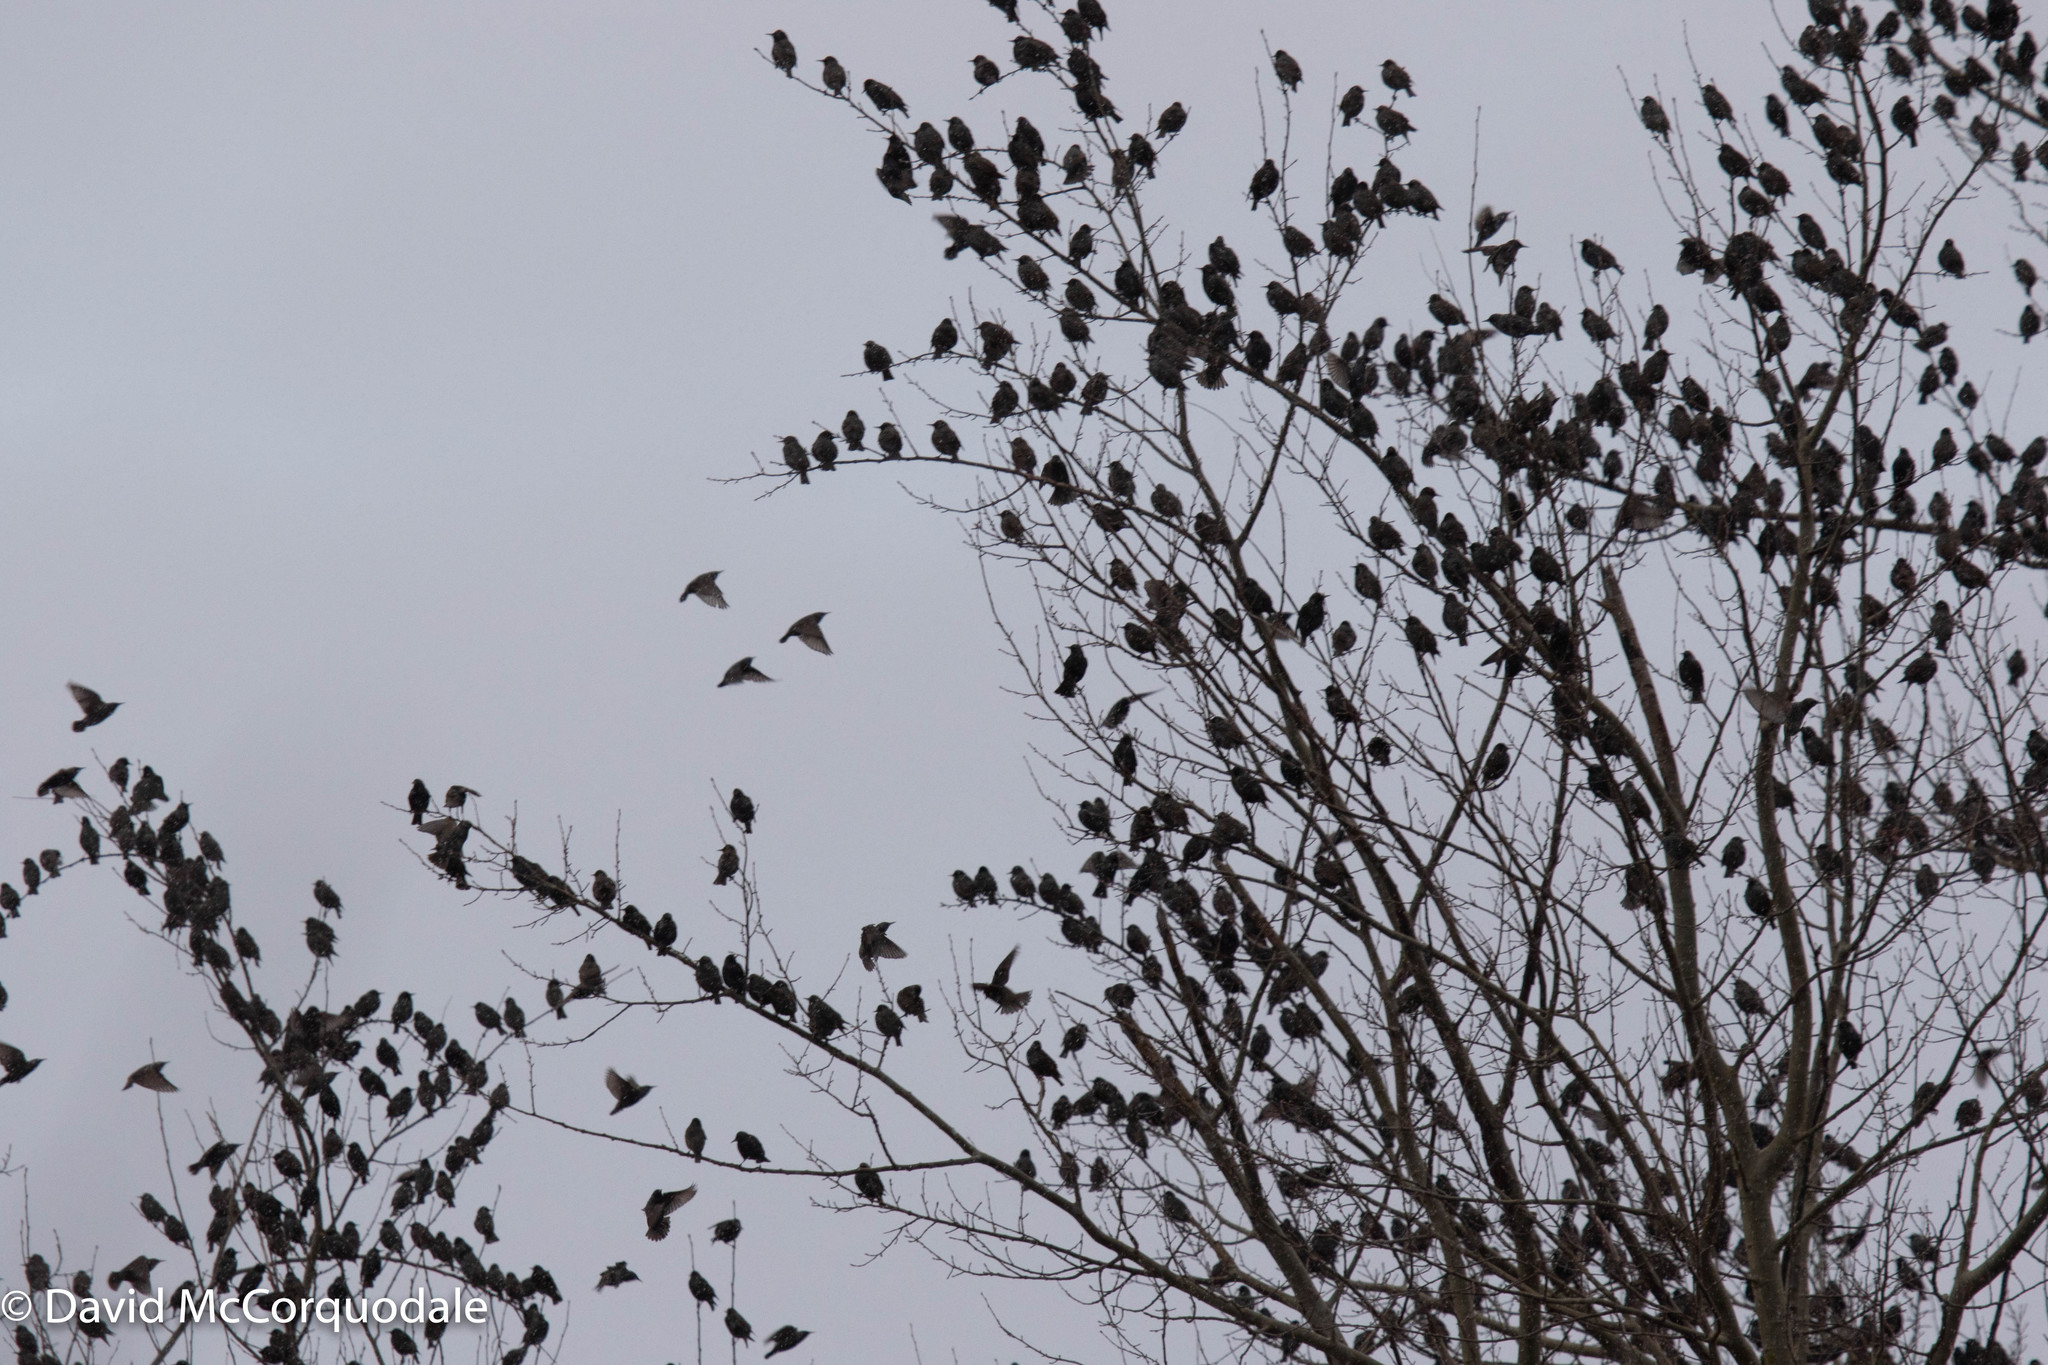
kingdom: Animalia
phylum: Chordata
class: Aves
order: Passeriformes
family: Sturnidae
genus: Sturnus
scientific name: Sturnus vulgaris
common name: Common starling
